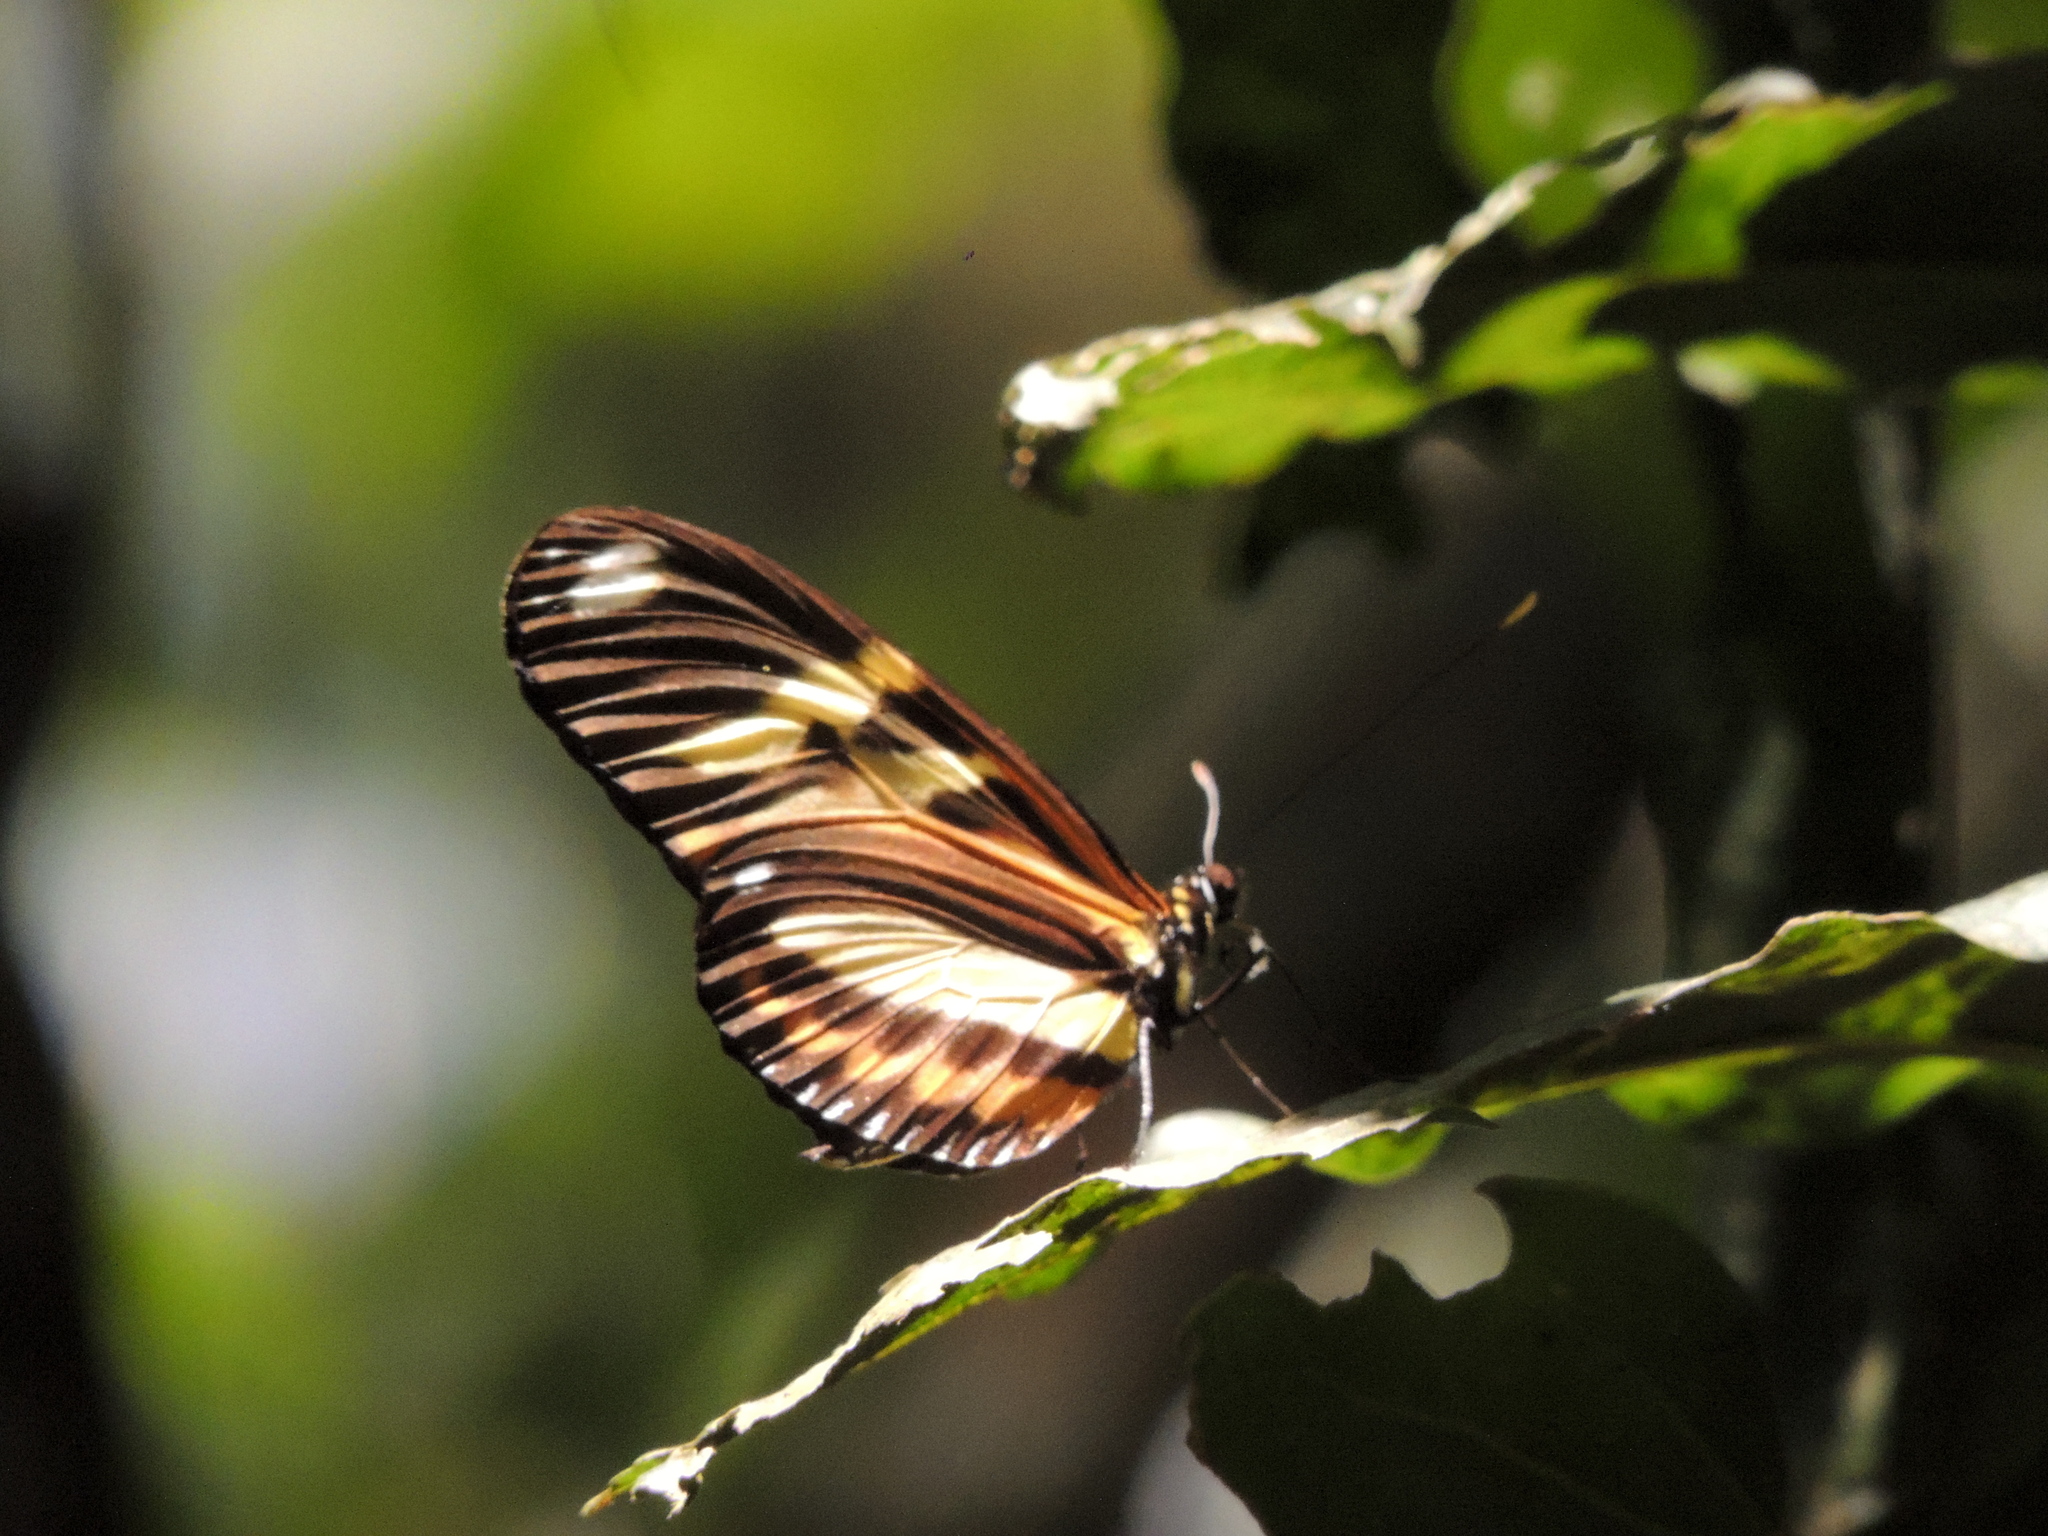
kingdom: Animalia
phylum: Arthropoda
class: Insecta
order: Lepidoptera
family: Nymphalidae
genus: Heliconius
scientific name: Heliconius ethilla
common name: Ethilia longwing
